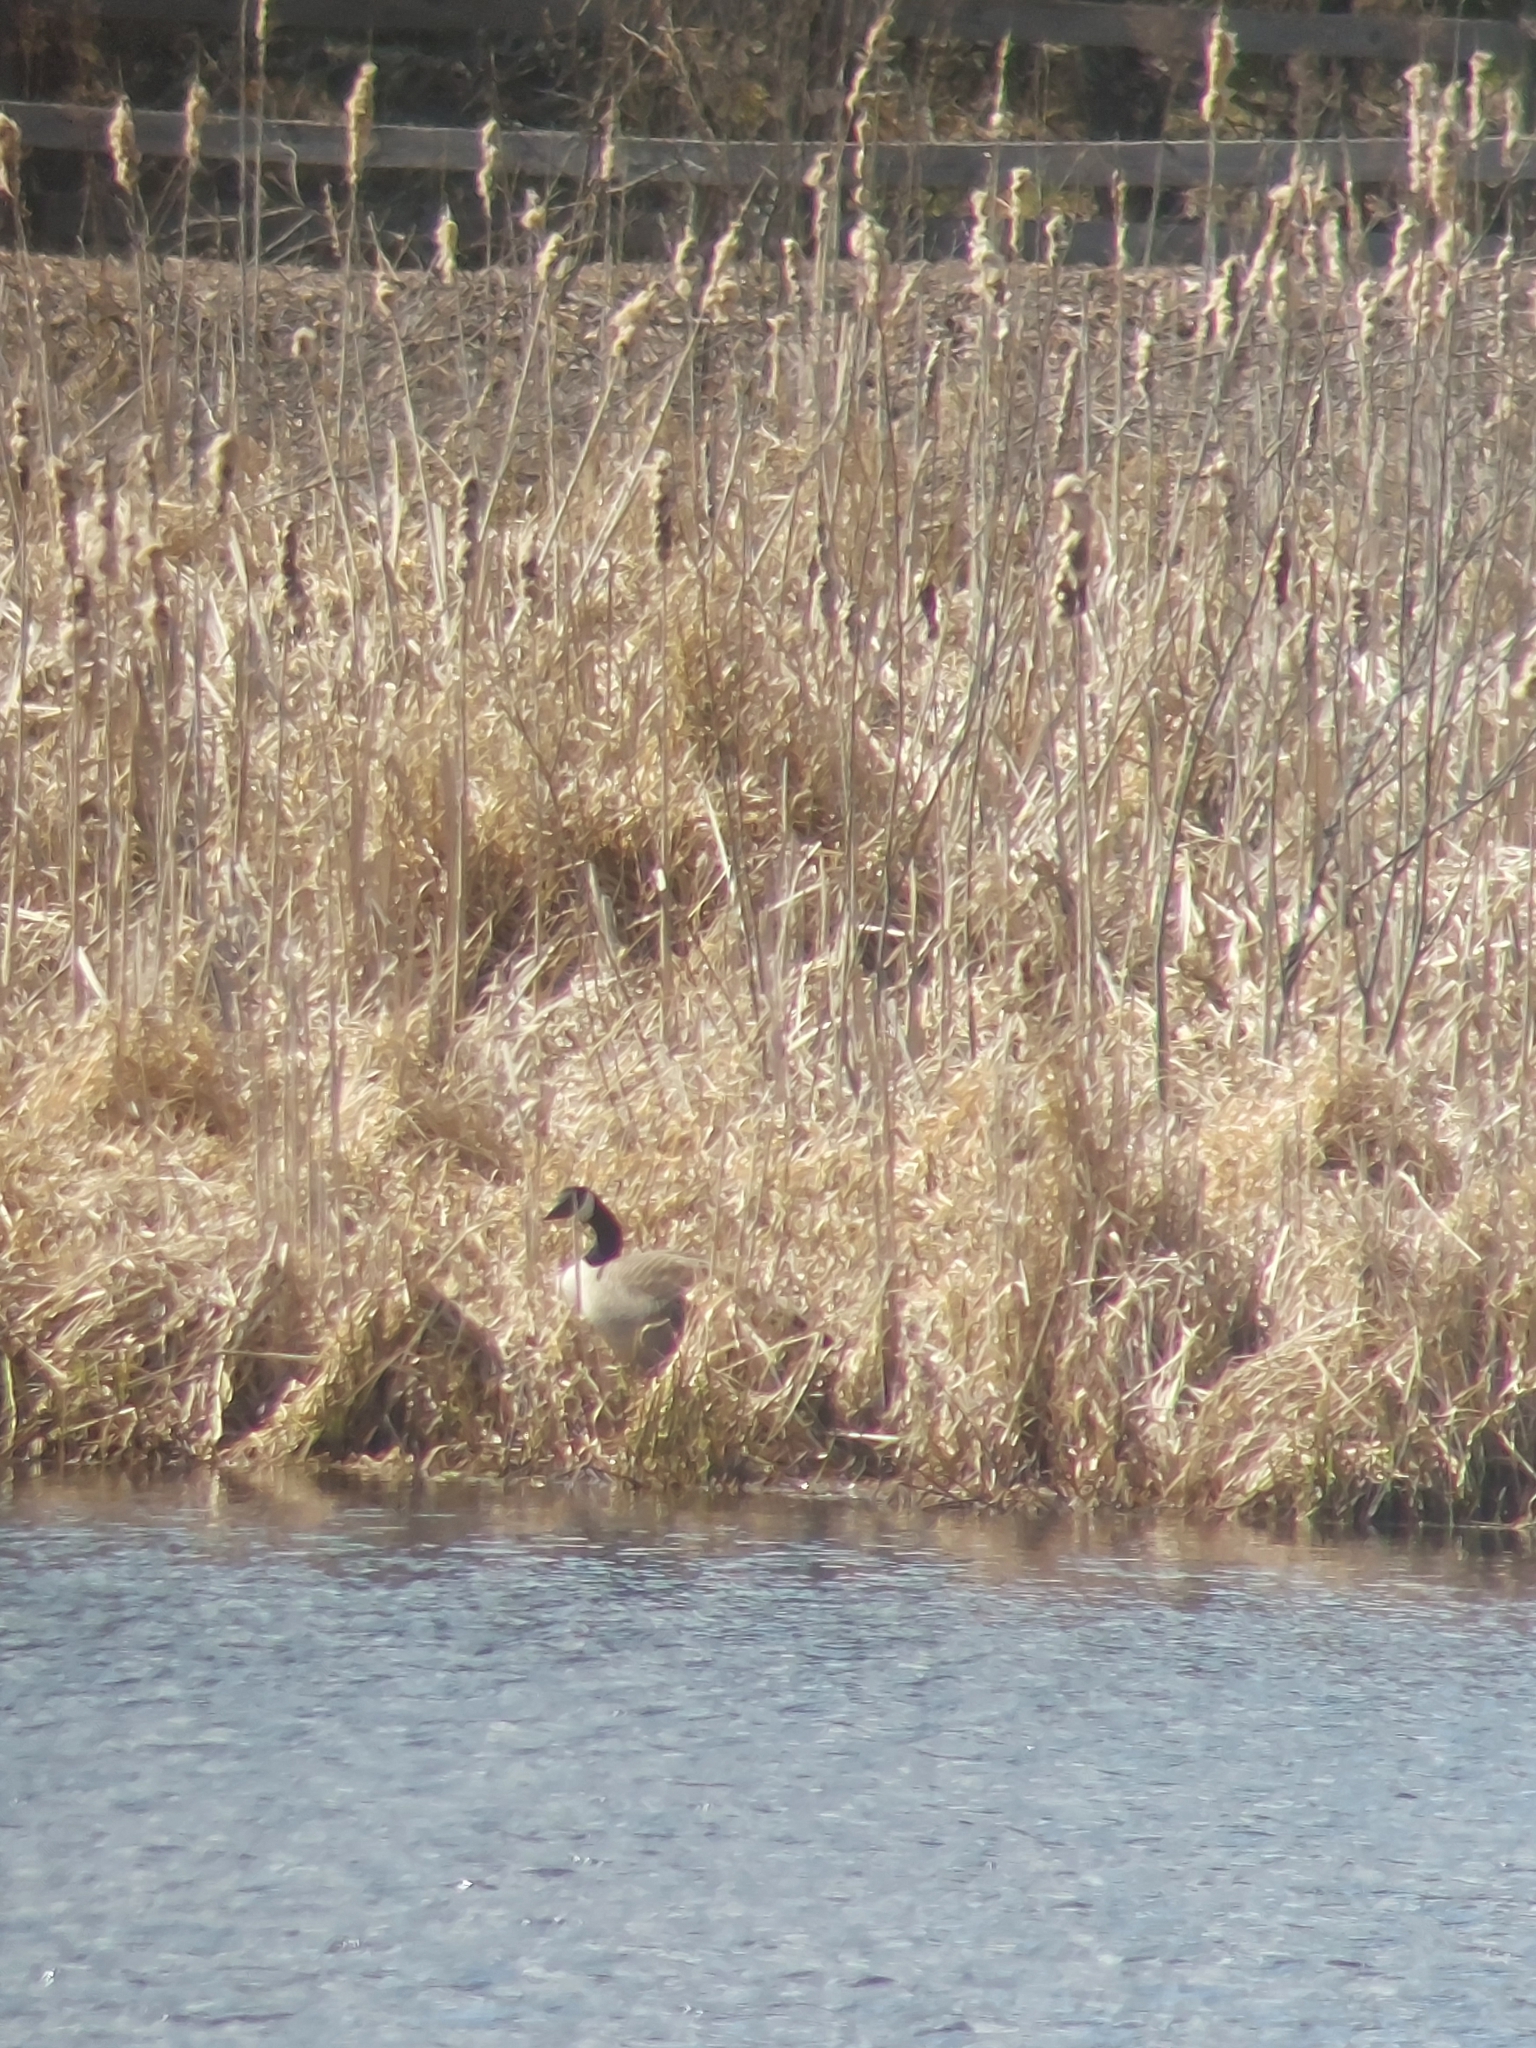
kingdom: Animalia
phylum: Chordata
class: Aves
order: Anseriformes
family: Anatidae
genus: Branta
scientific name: Branta canadensis
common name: Canada goose
